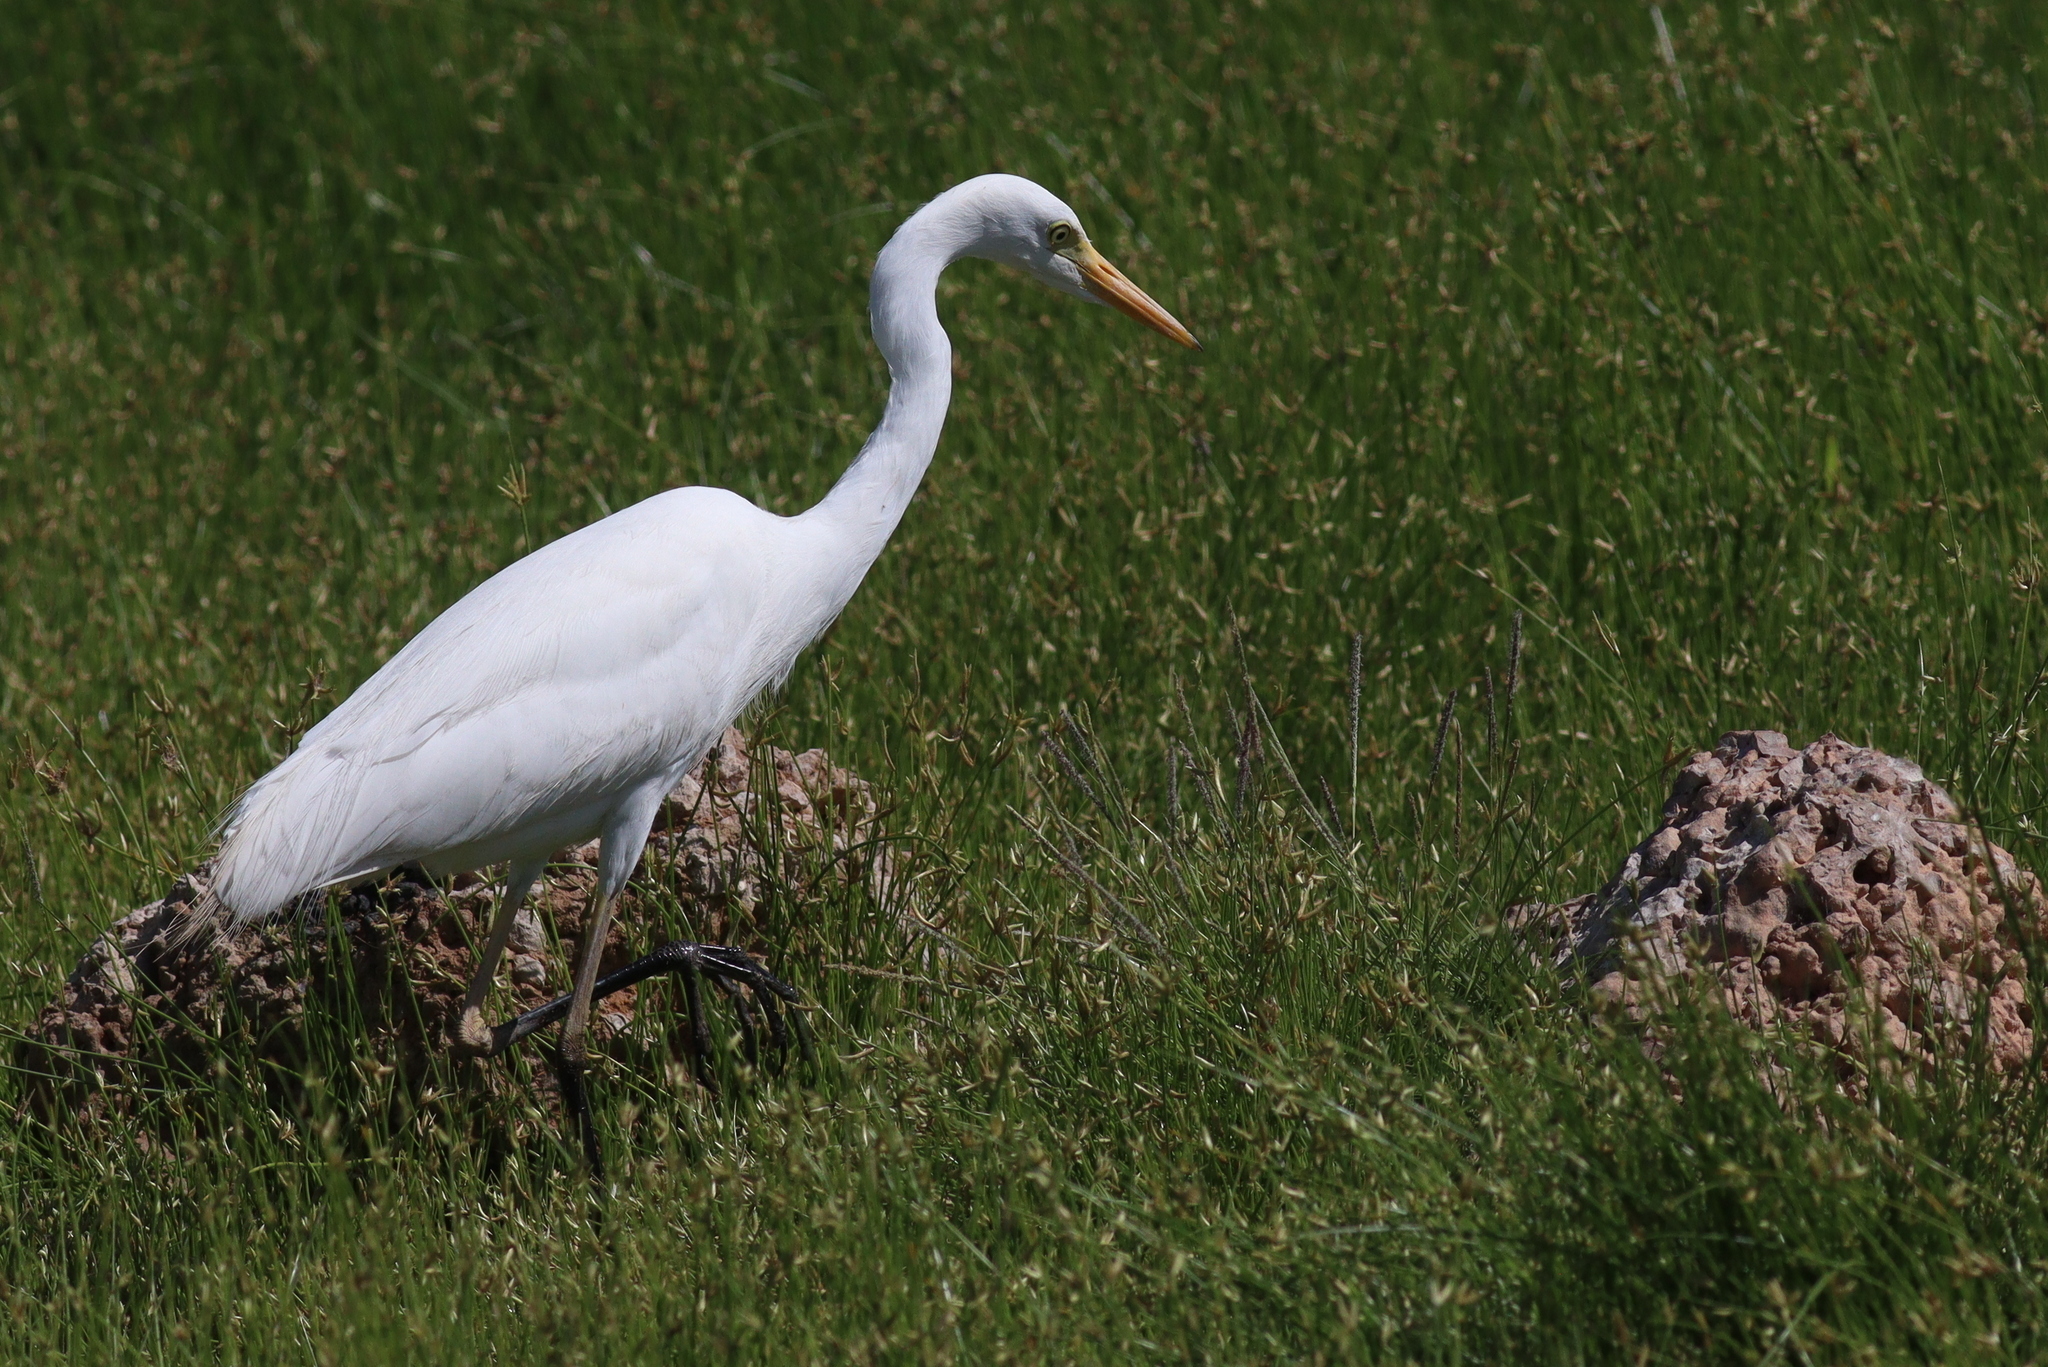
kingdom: Animalia
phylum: Chordata
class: Aves
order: Pelecaniformes
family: Ardeidae
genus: Egretta
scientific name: Egretta intermedia
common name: Intermediate egret
